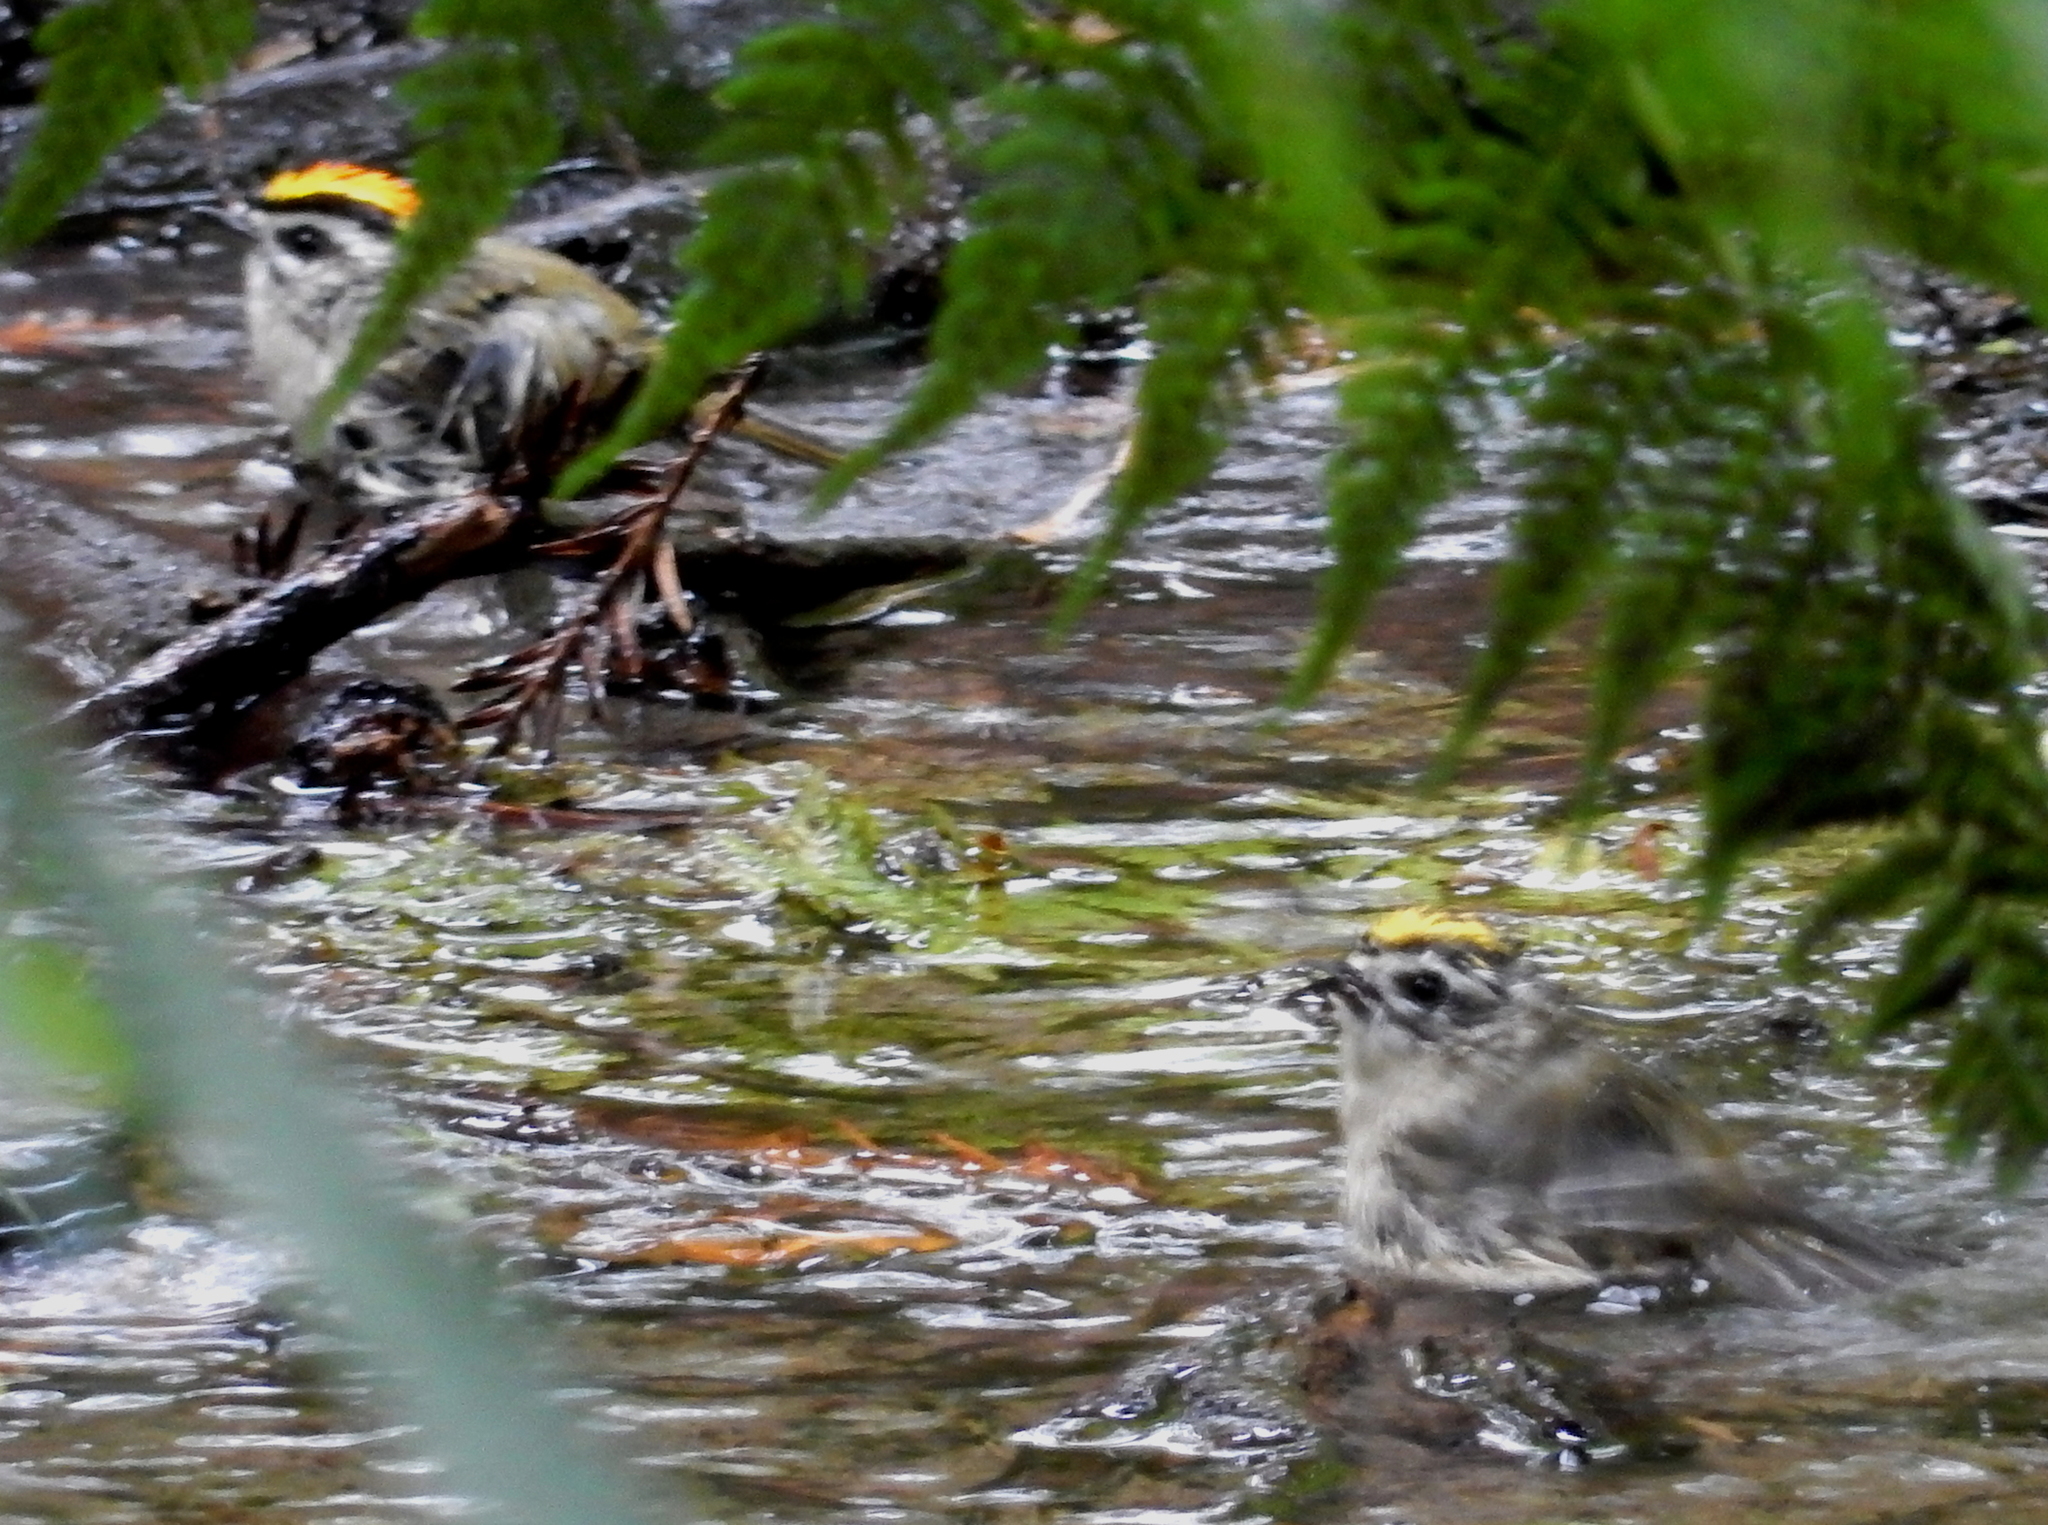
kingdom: Animalia
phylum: Chordata
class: Aves
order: Passeriformes
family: Regulidae
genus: Regulus
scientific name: Regulus satrapa
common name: Golden-crowned kinglet
